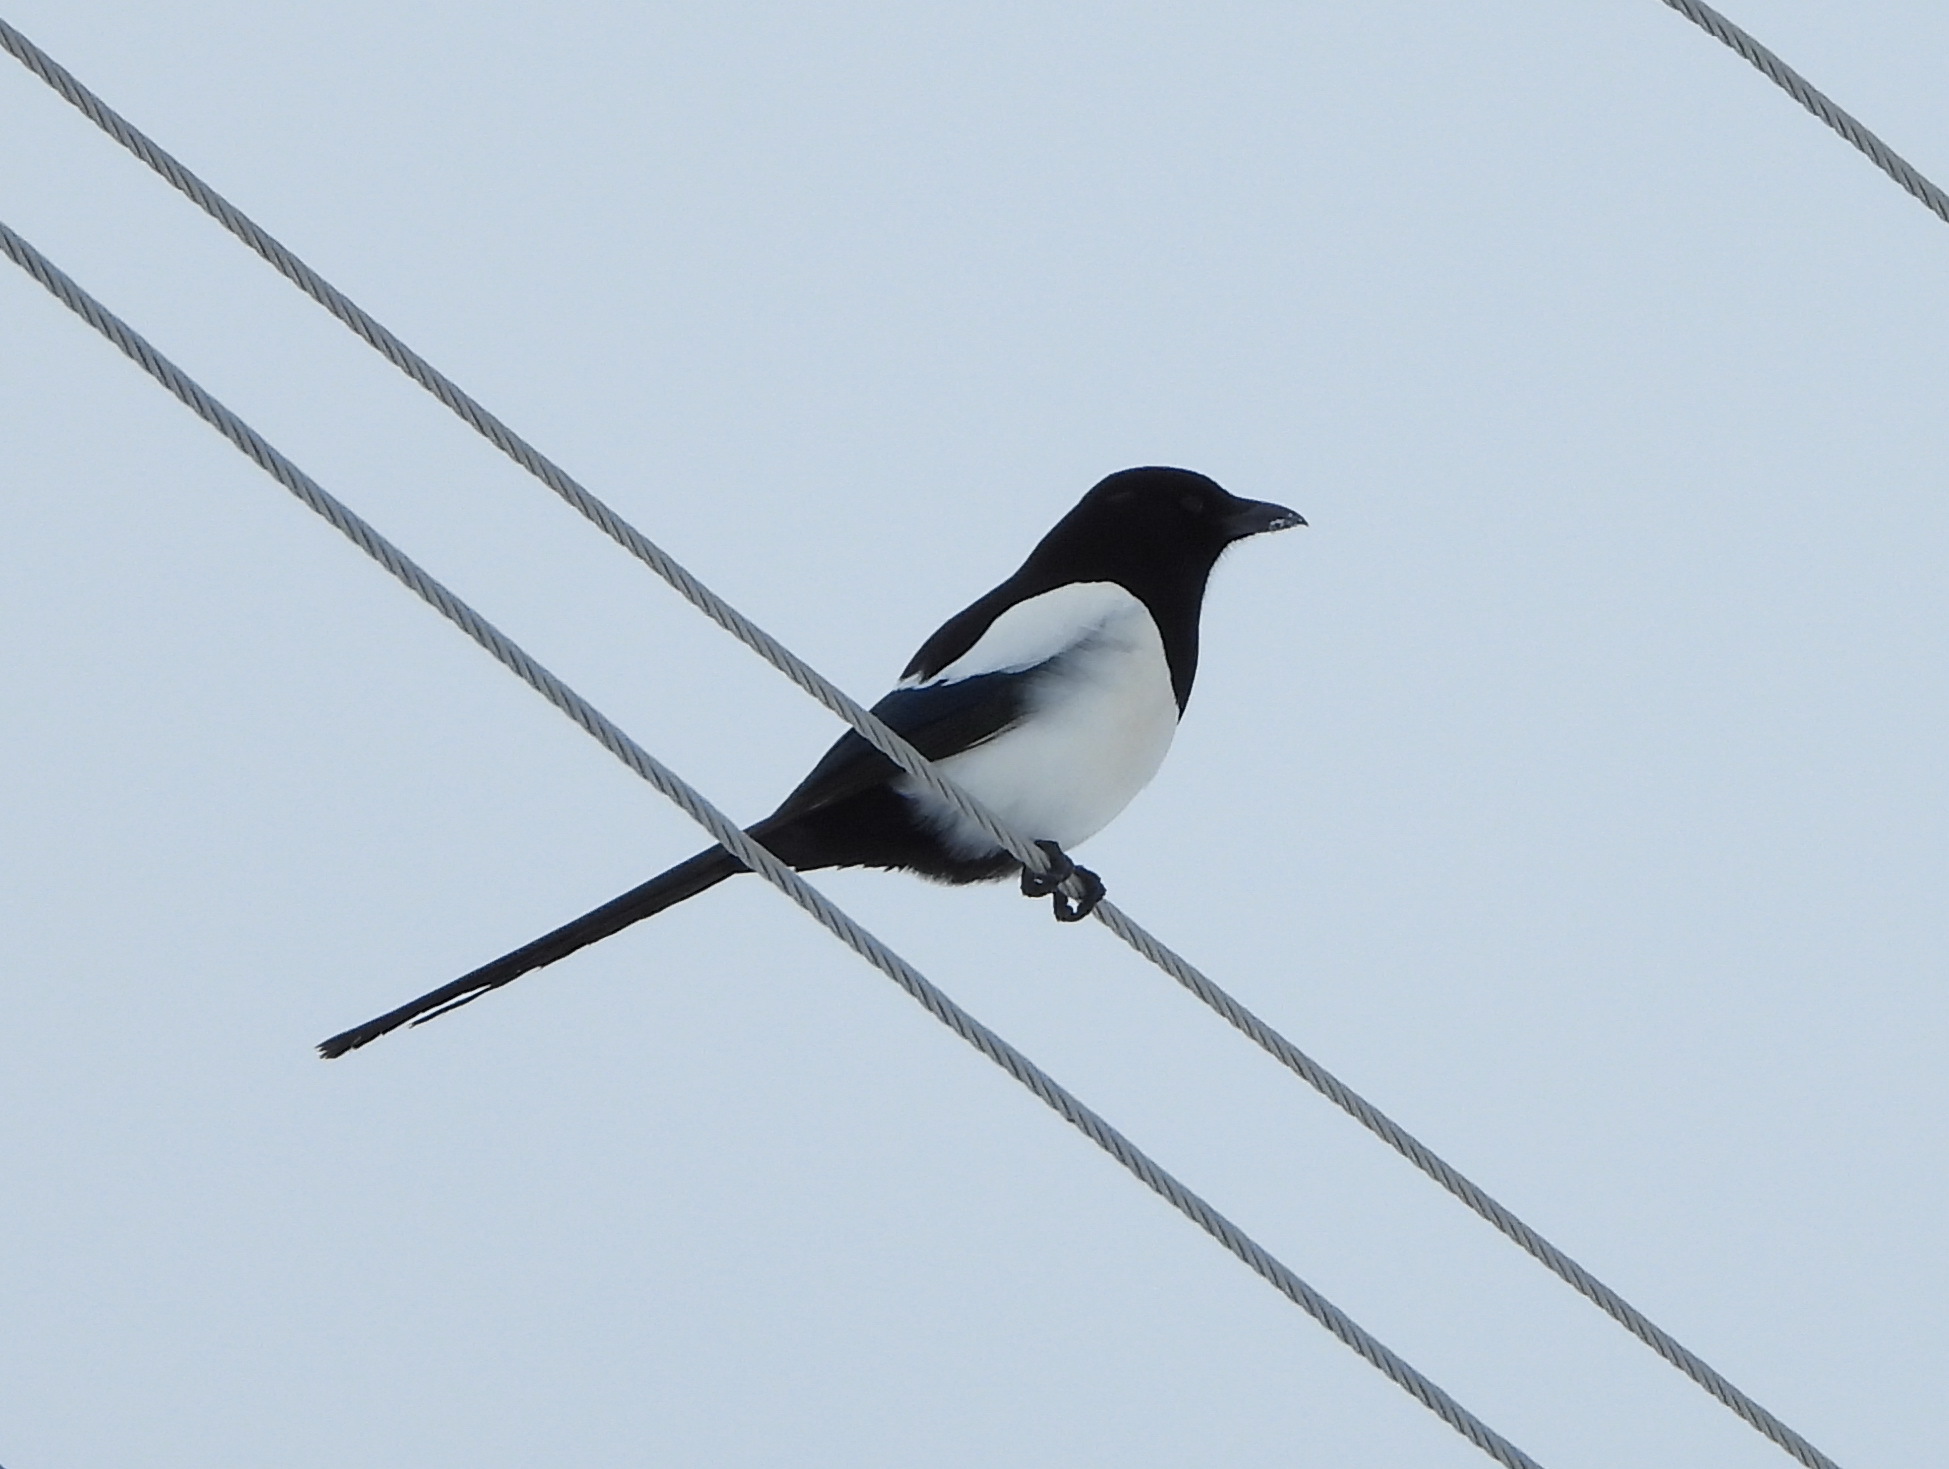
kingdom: Animalia
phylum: Chordata
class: Aves
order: Passeriformes
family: Corvidae
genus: Pica
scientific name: Pica pica
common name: Eurasian magpie
